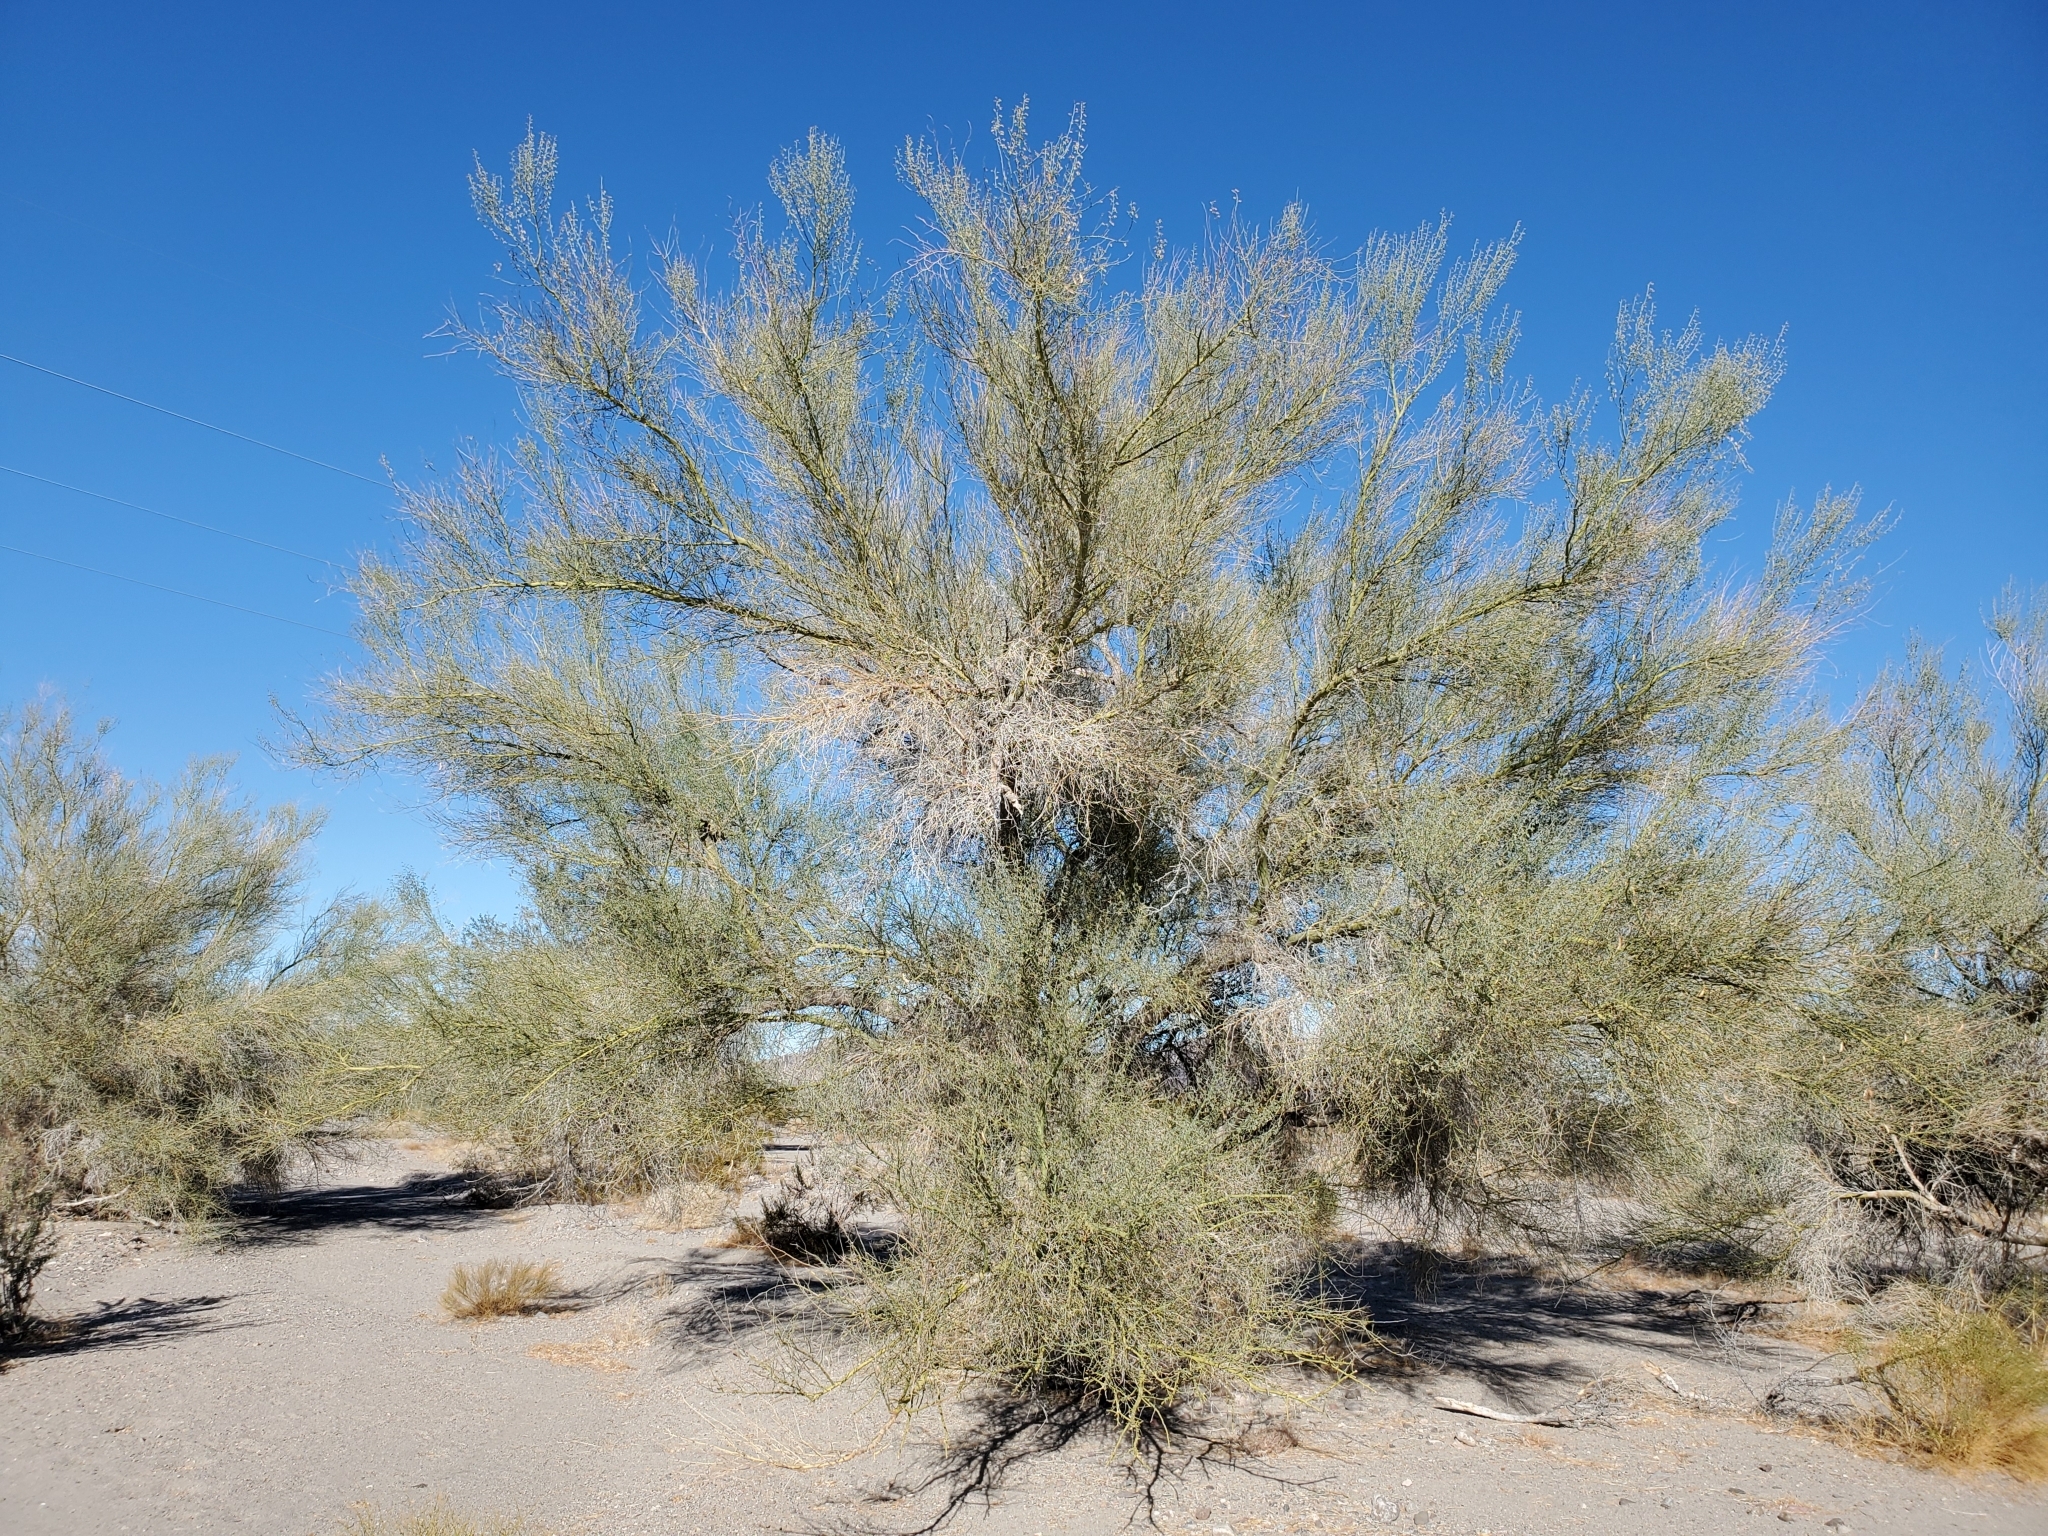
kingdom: Plantae
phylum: Tracheophyta
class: Magnoliopsida
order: Fabales
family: Fabaceae
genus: Parkinsonia
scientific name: Parkinsonia florida
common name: Blue paloverde
